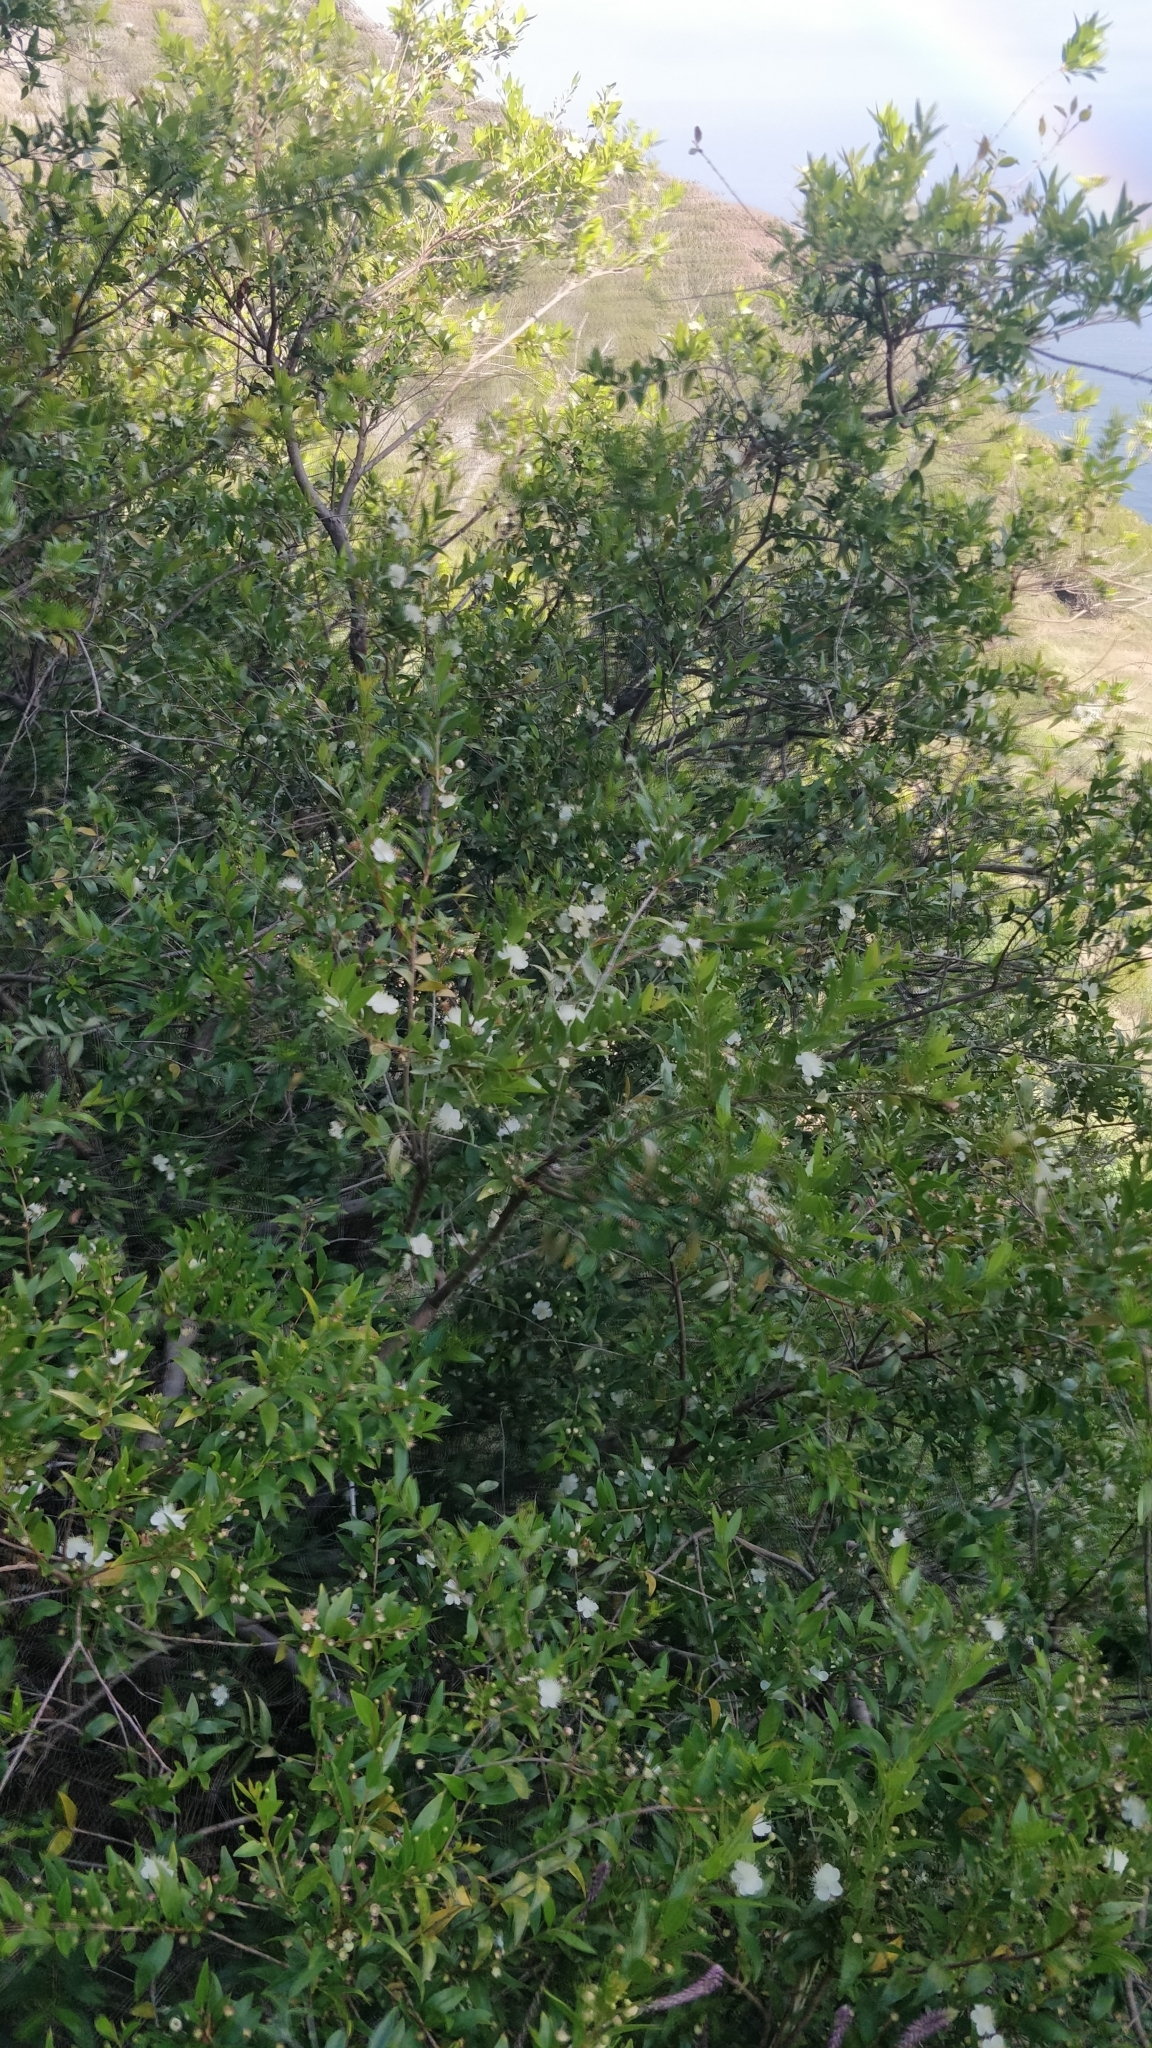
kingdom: Plantae
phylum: Tracheophyta
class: Magnoliopsida
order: Myrtales
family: Myrtaceae
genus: Myrtus
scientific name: Myrtus communis
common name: Myrtle
